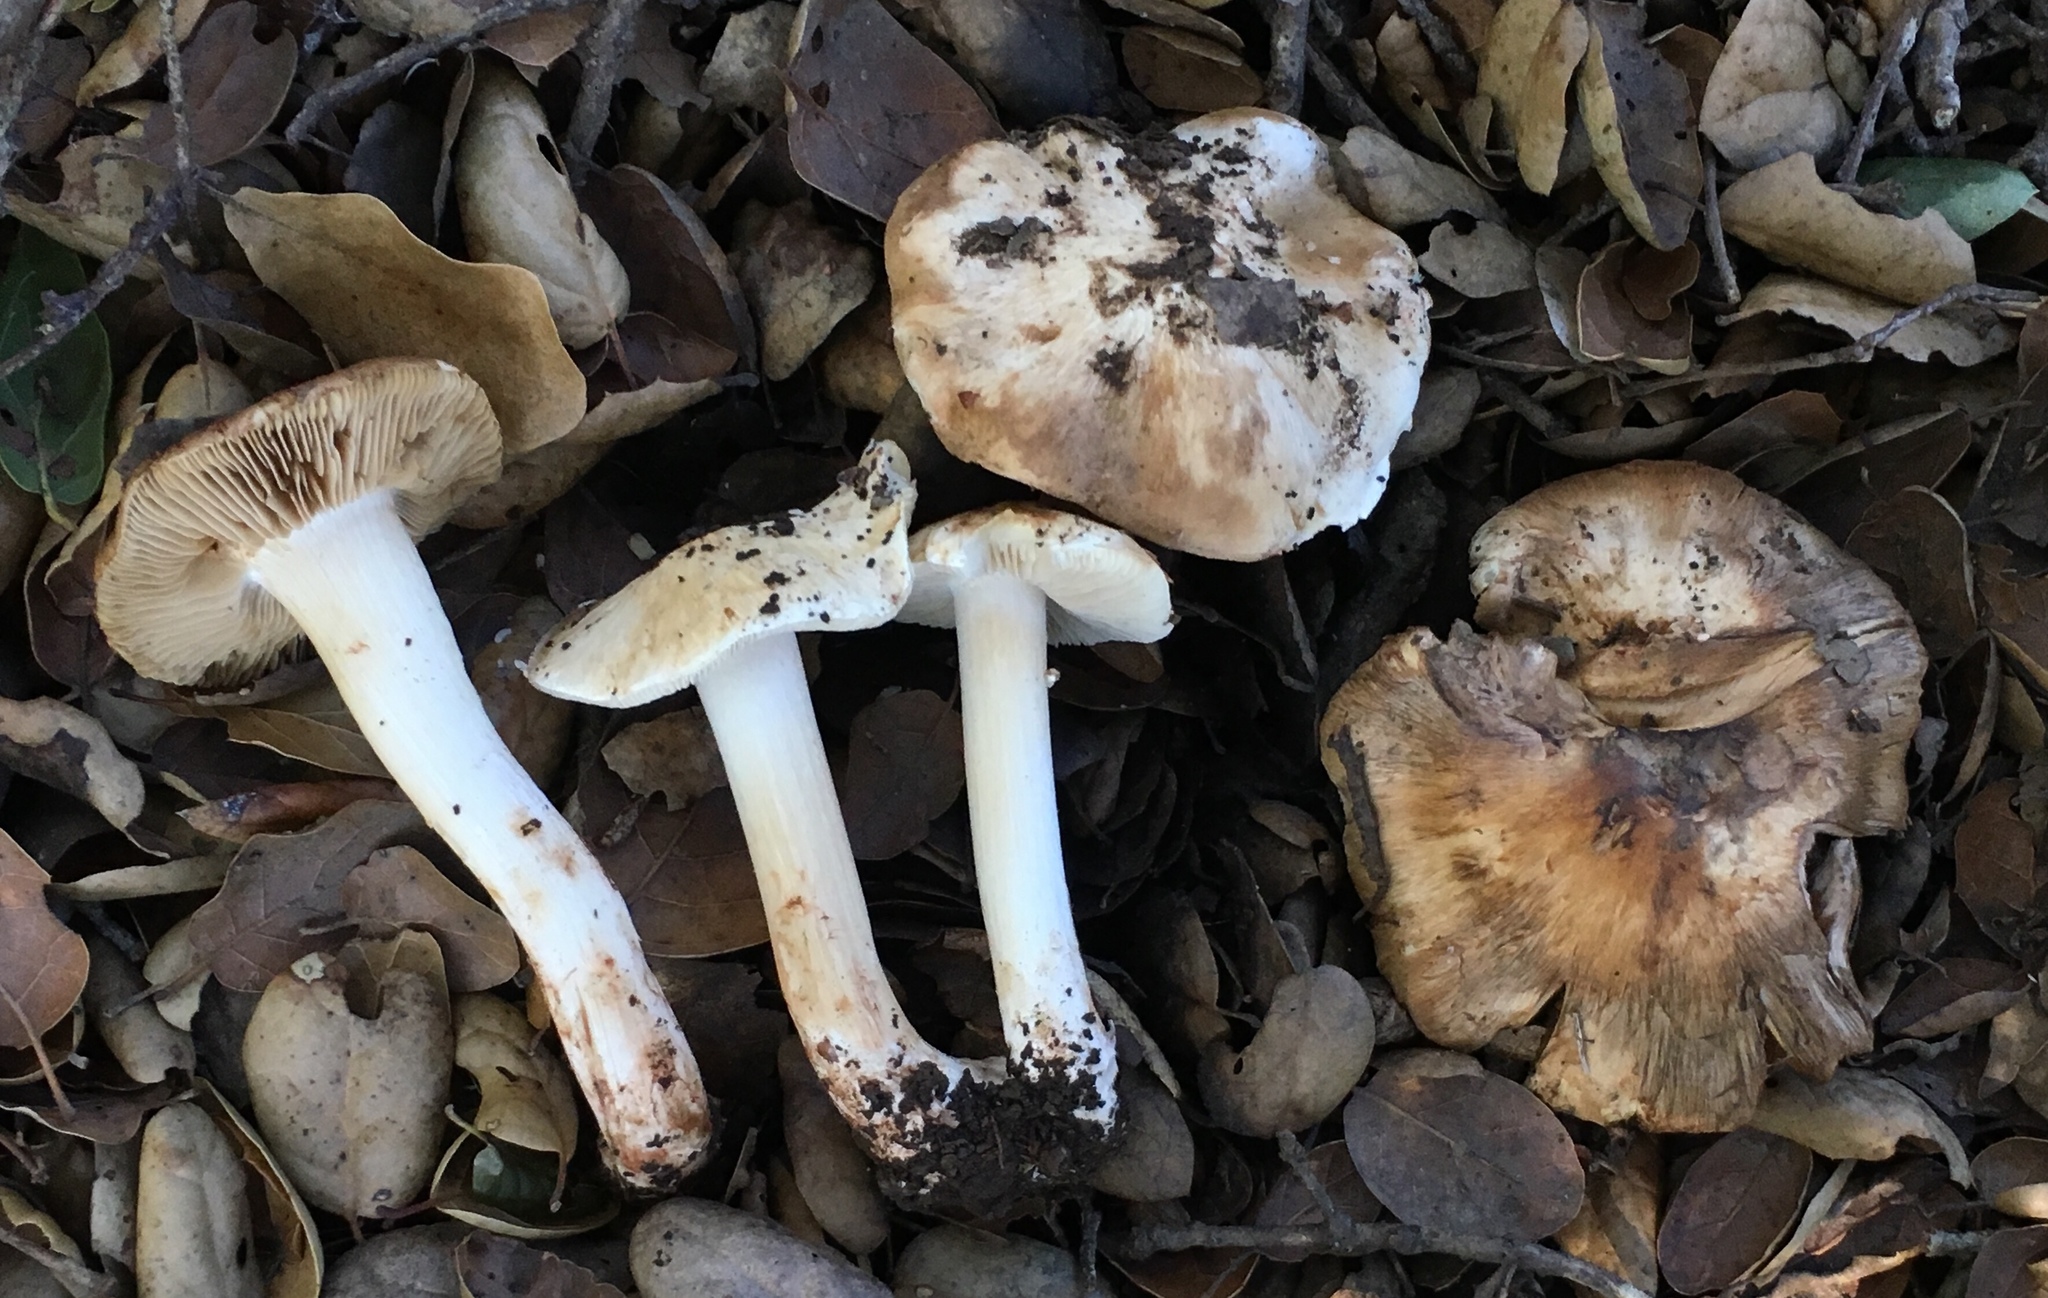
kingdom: Fungi
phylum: Basidiomycota
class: Agaricomycetes
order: Agaricales
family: Inocybaceae
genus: Inocybe
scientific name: Inocybe fraudans
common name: Pear fibrecap
